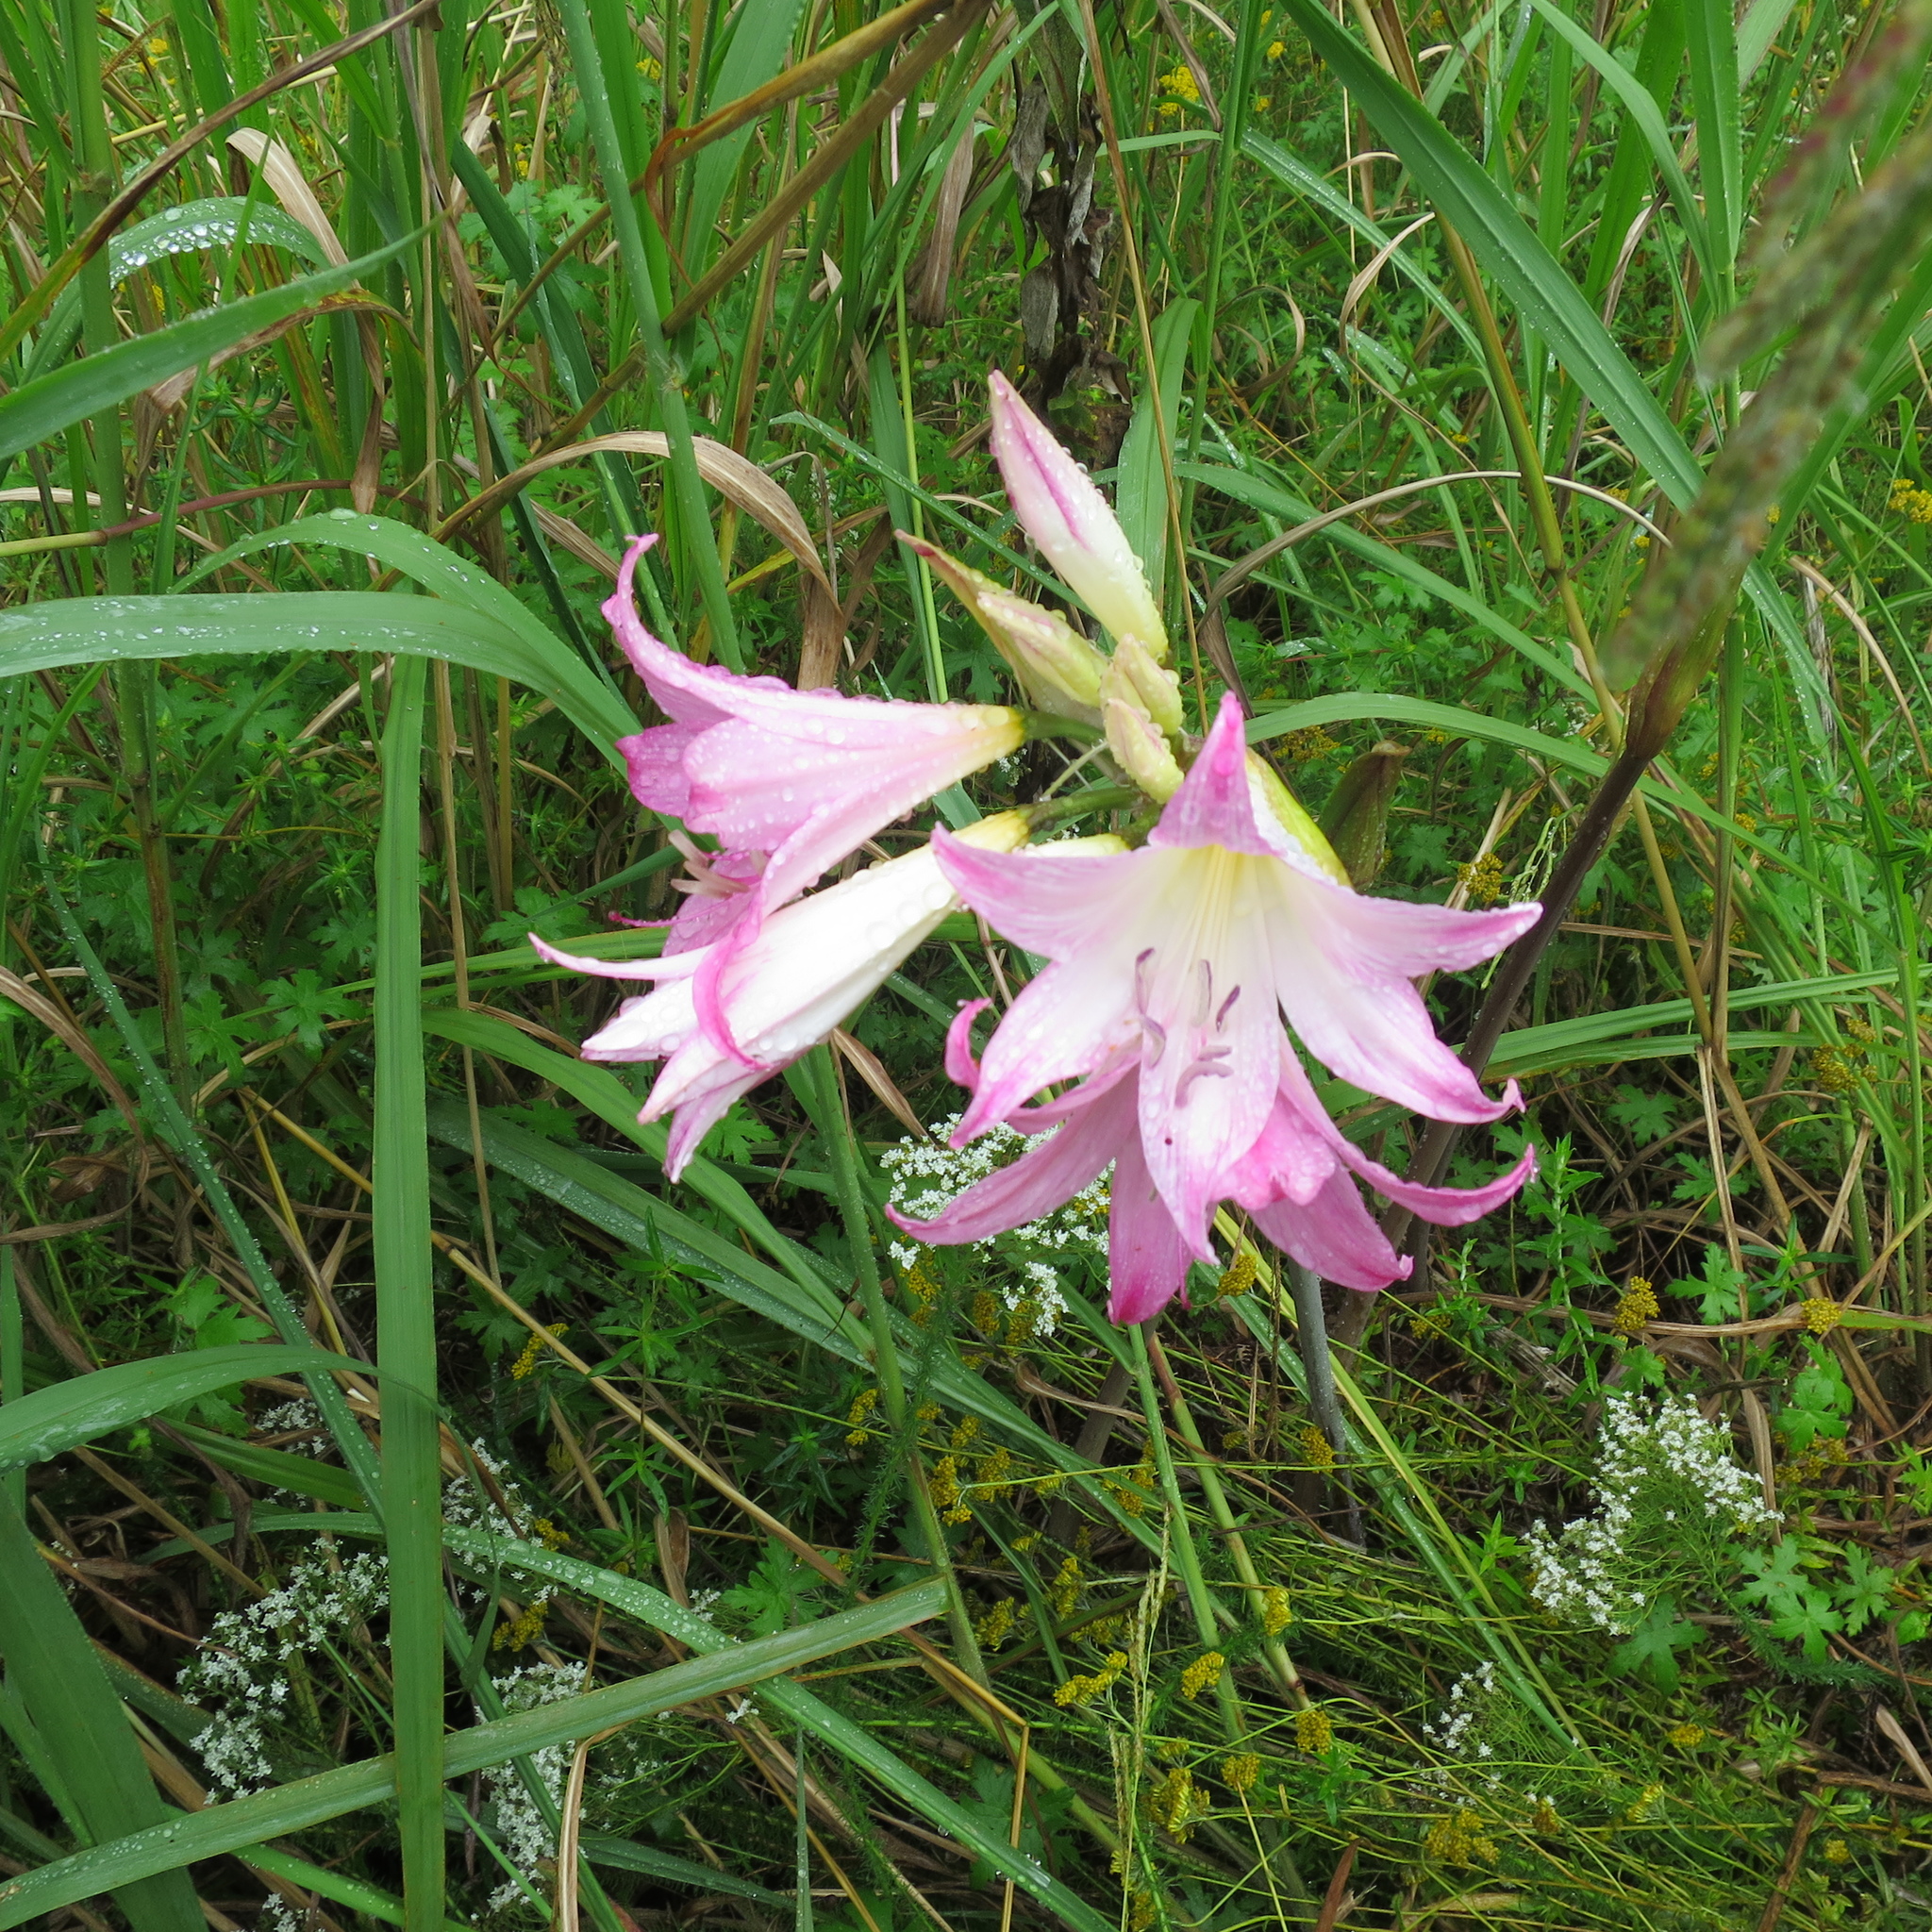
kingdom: Plantae
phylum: Tracheophyta
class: Liliopsida
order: Asparagales
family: Amaryllidaceae
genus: Amaryllis
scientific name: Amaryllis belladonna
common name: Jersey lily
